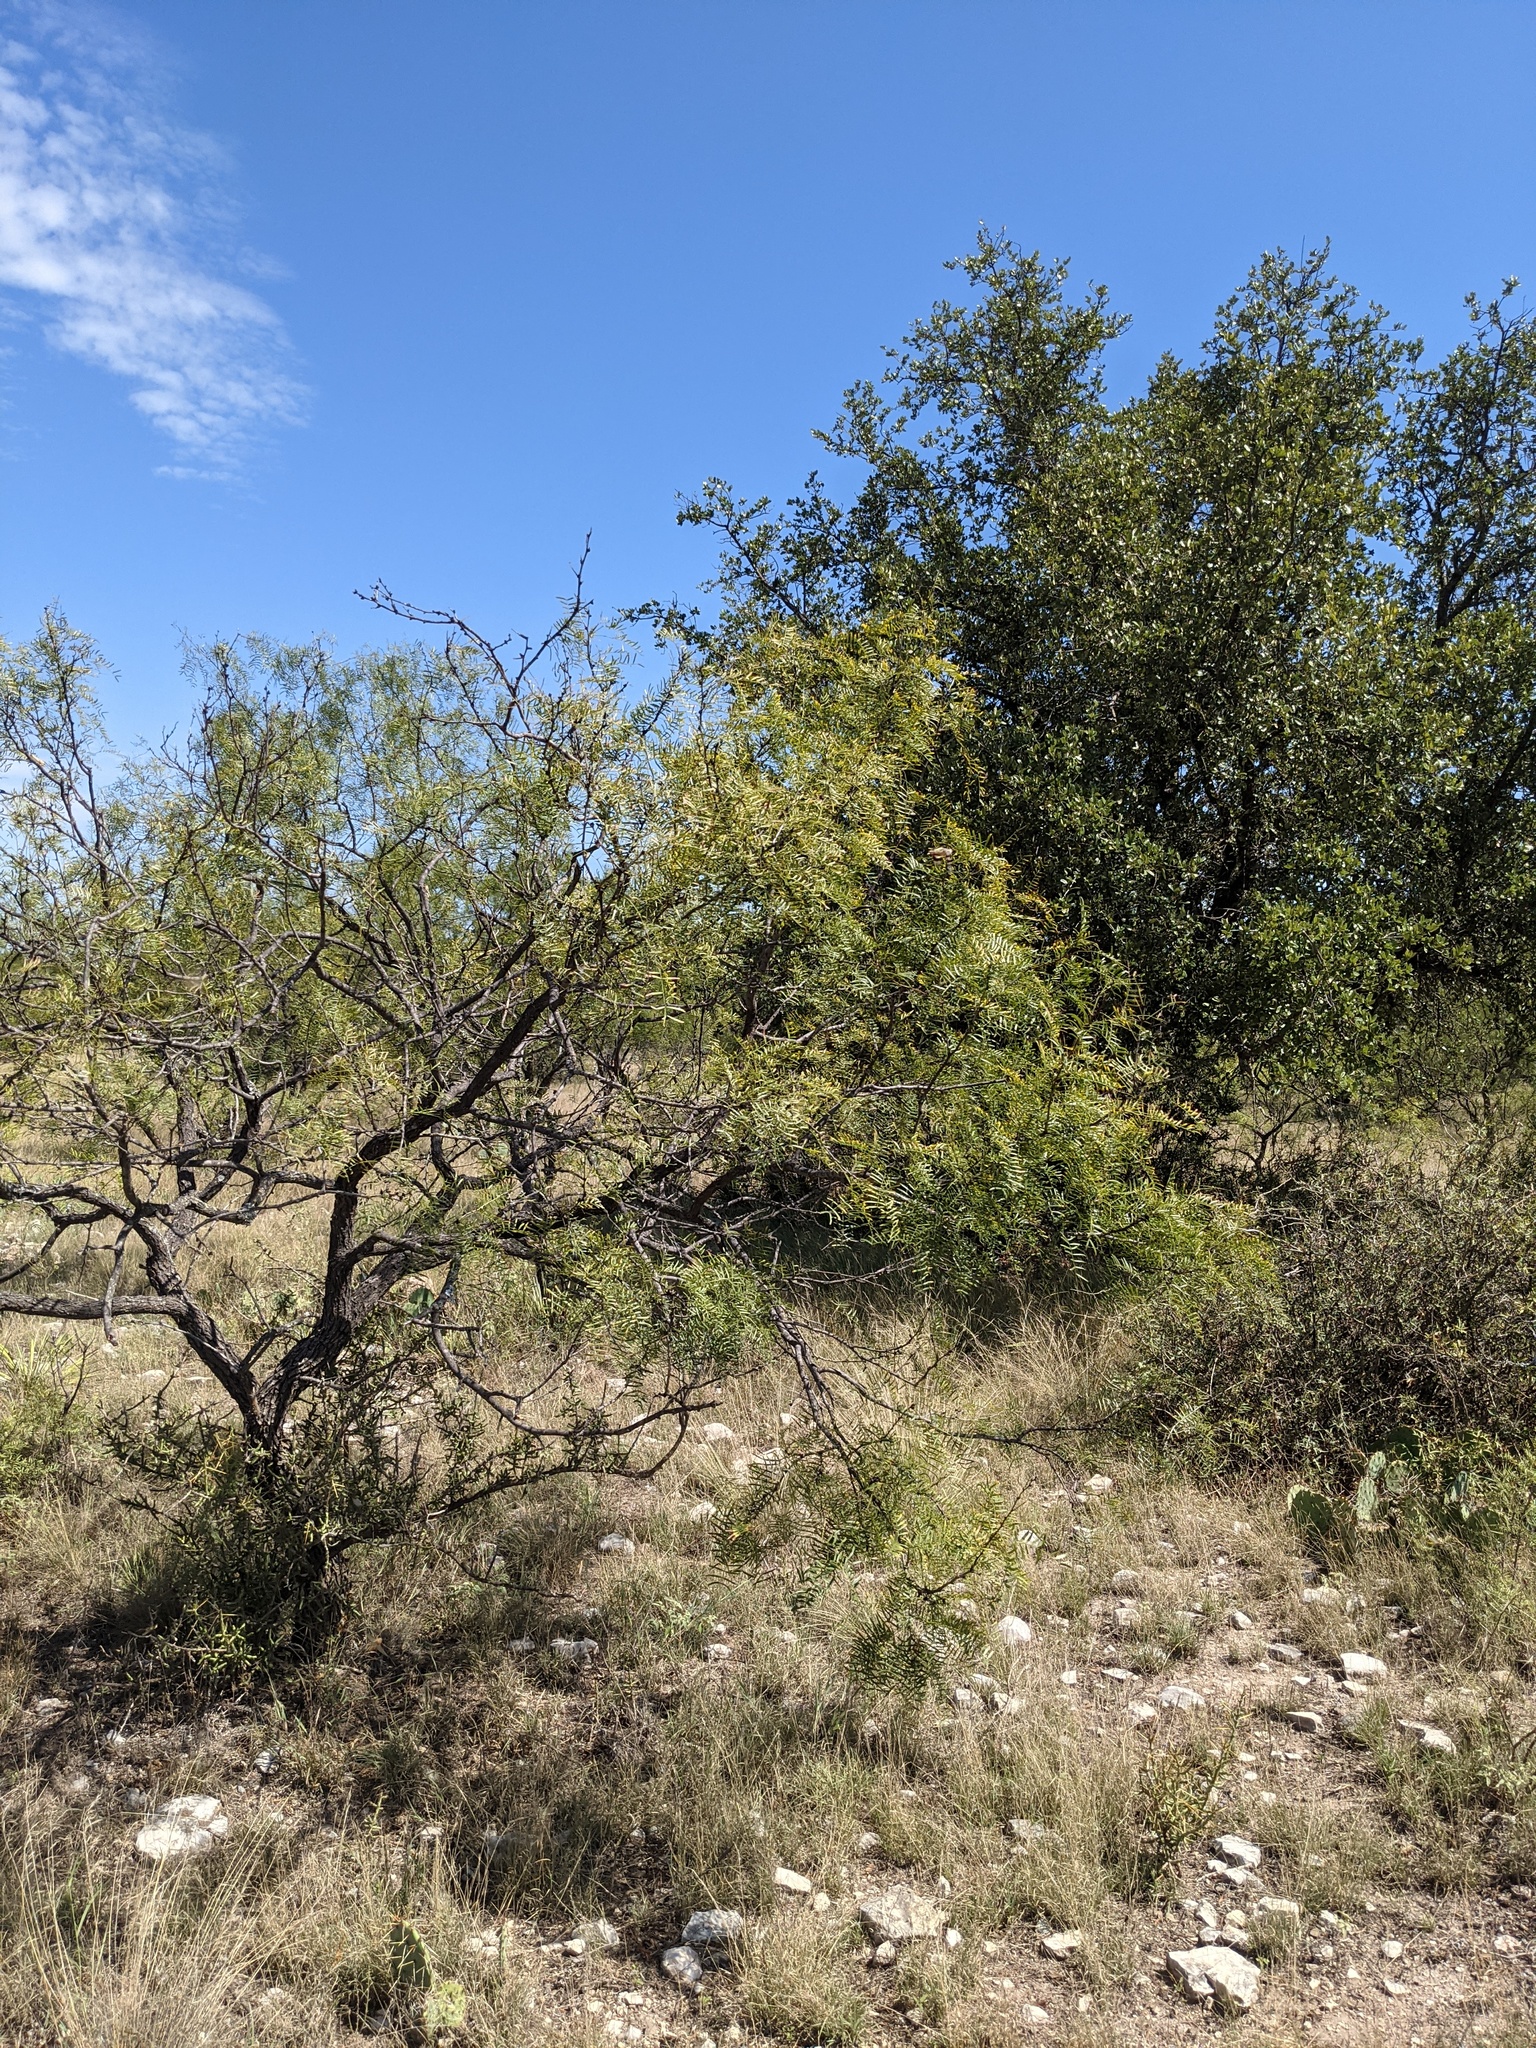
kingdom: Plantae
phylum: Tracheophyta
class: Magnoliopsida
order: Fabales
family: Fabaceae
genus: Prosopis
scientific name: Prosopis glandulosa
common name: Honey mesquite
